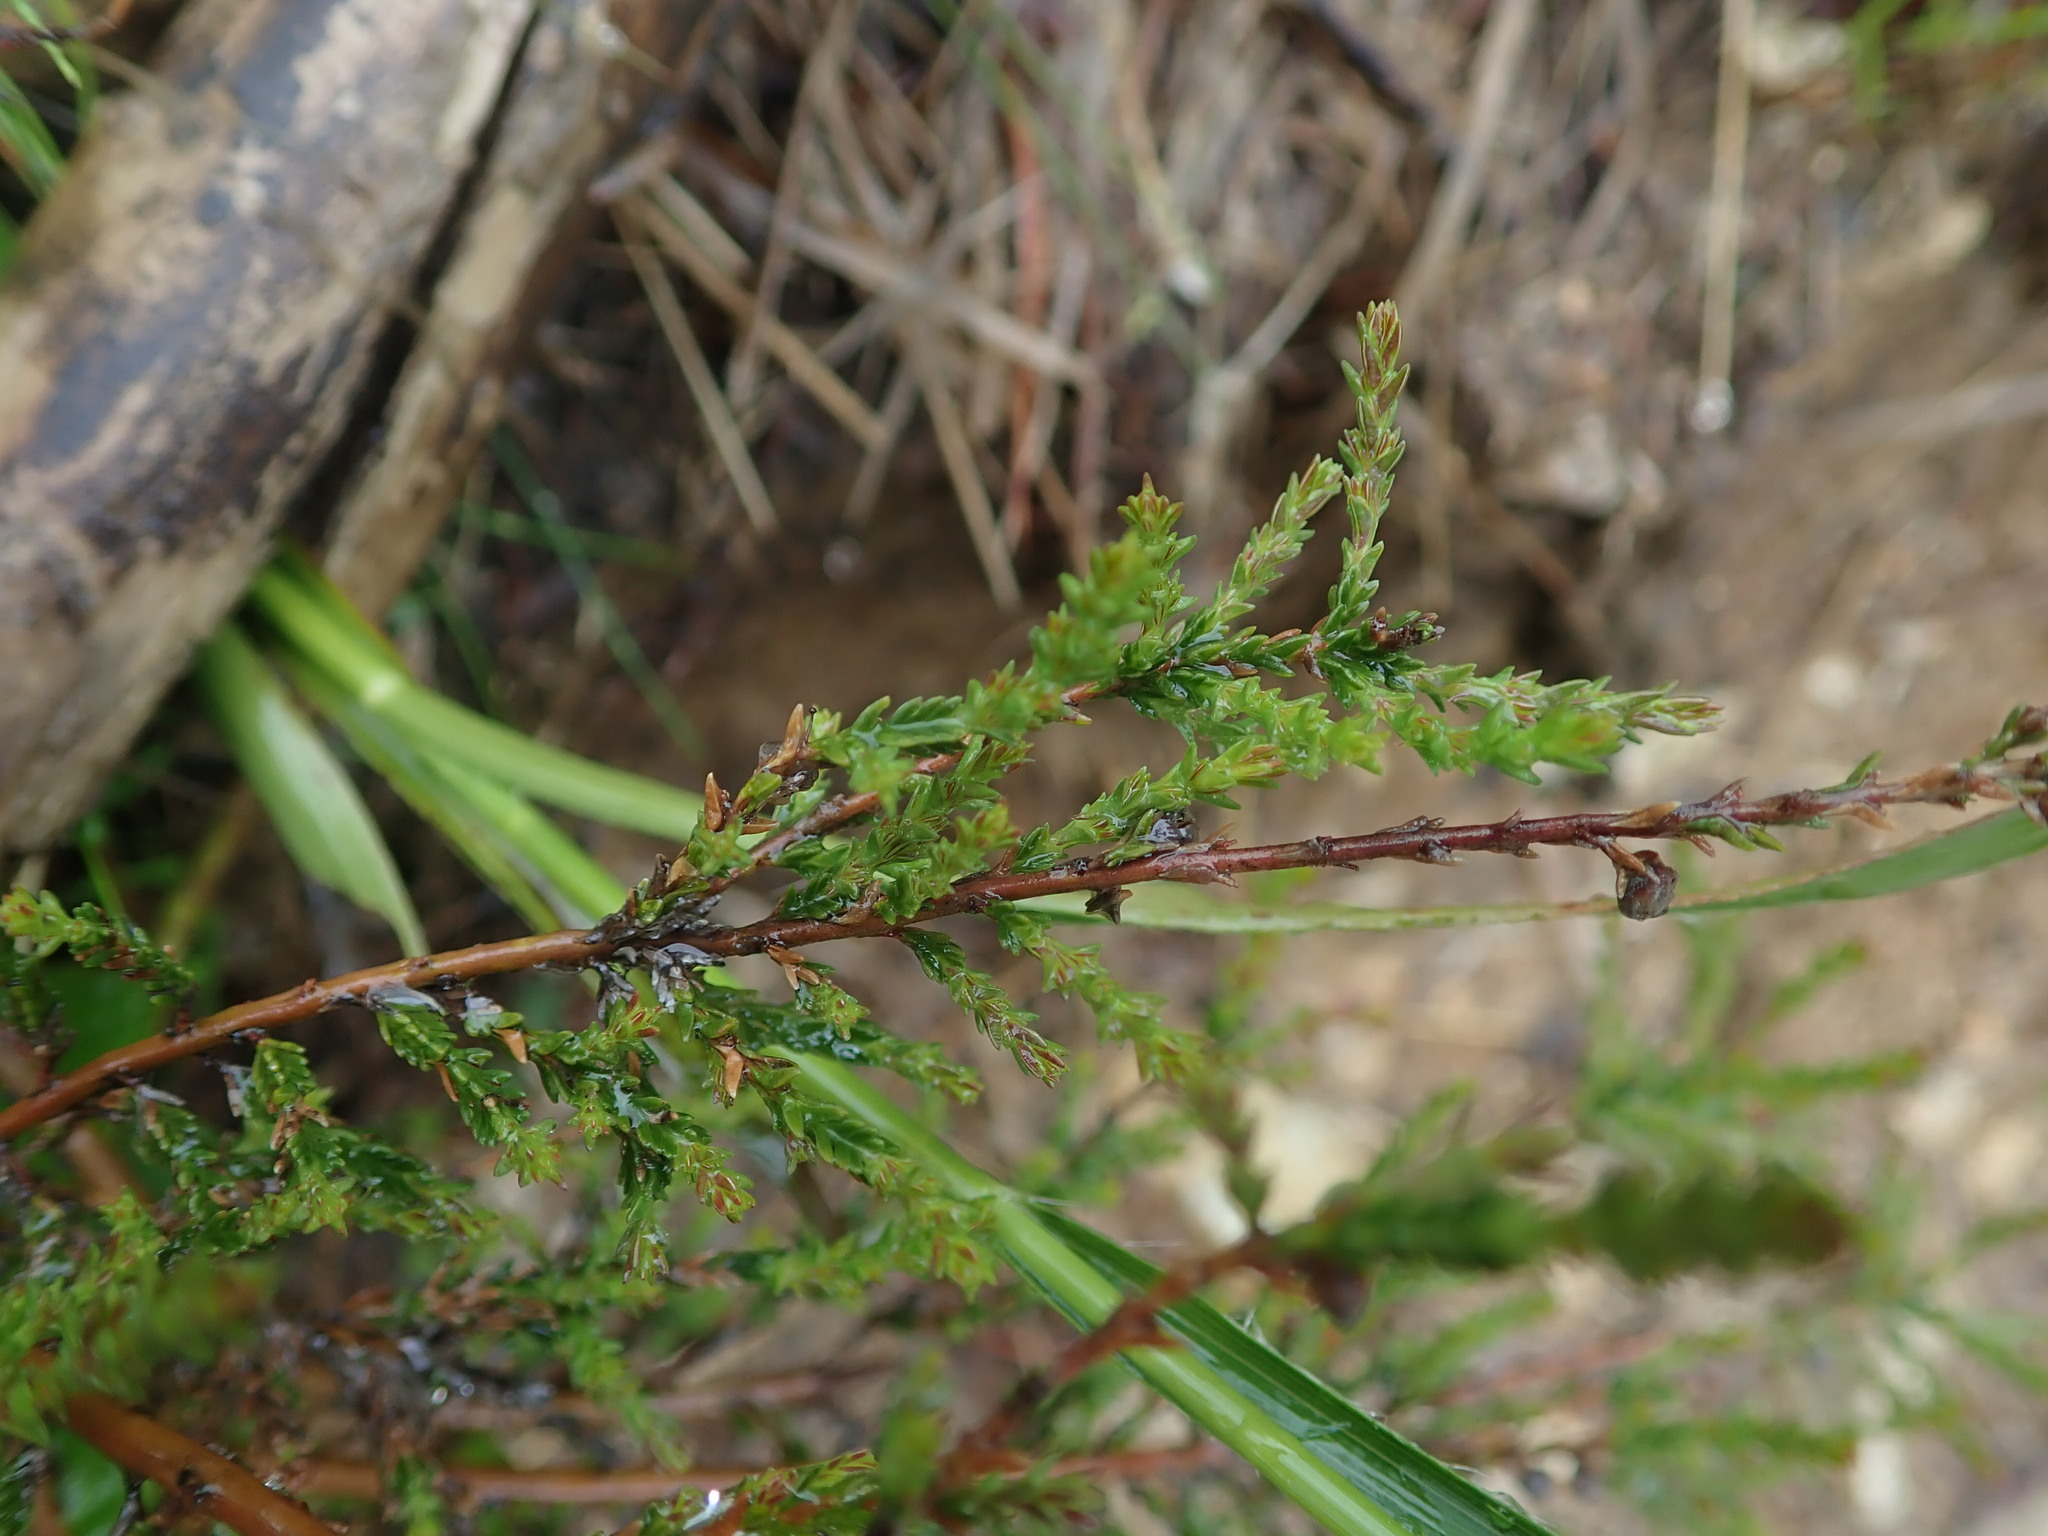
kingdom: Plantae
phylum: Tracheophyta
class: Magnoliopsida
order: Ericales
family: Ericaceae
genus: Calluna
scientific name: Calluna vulgaris
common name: Heather
